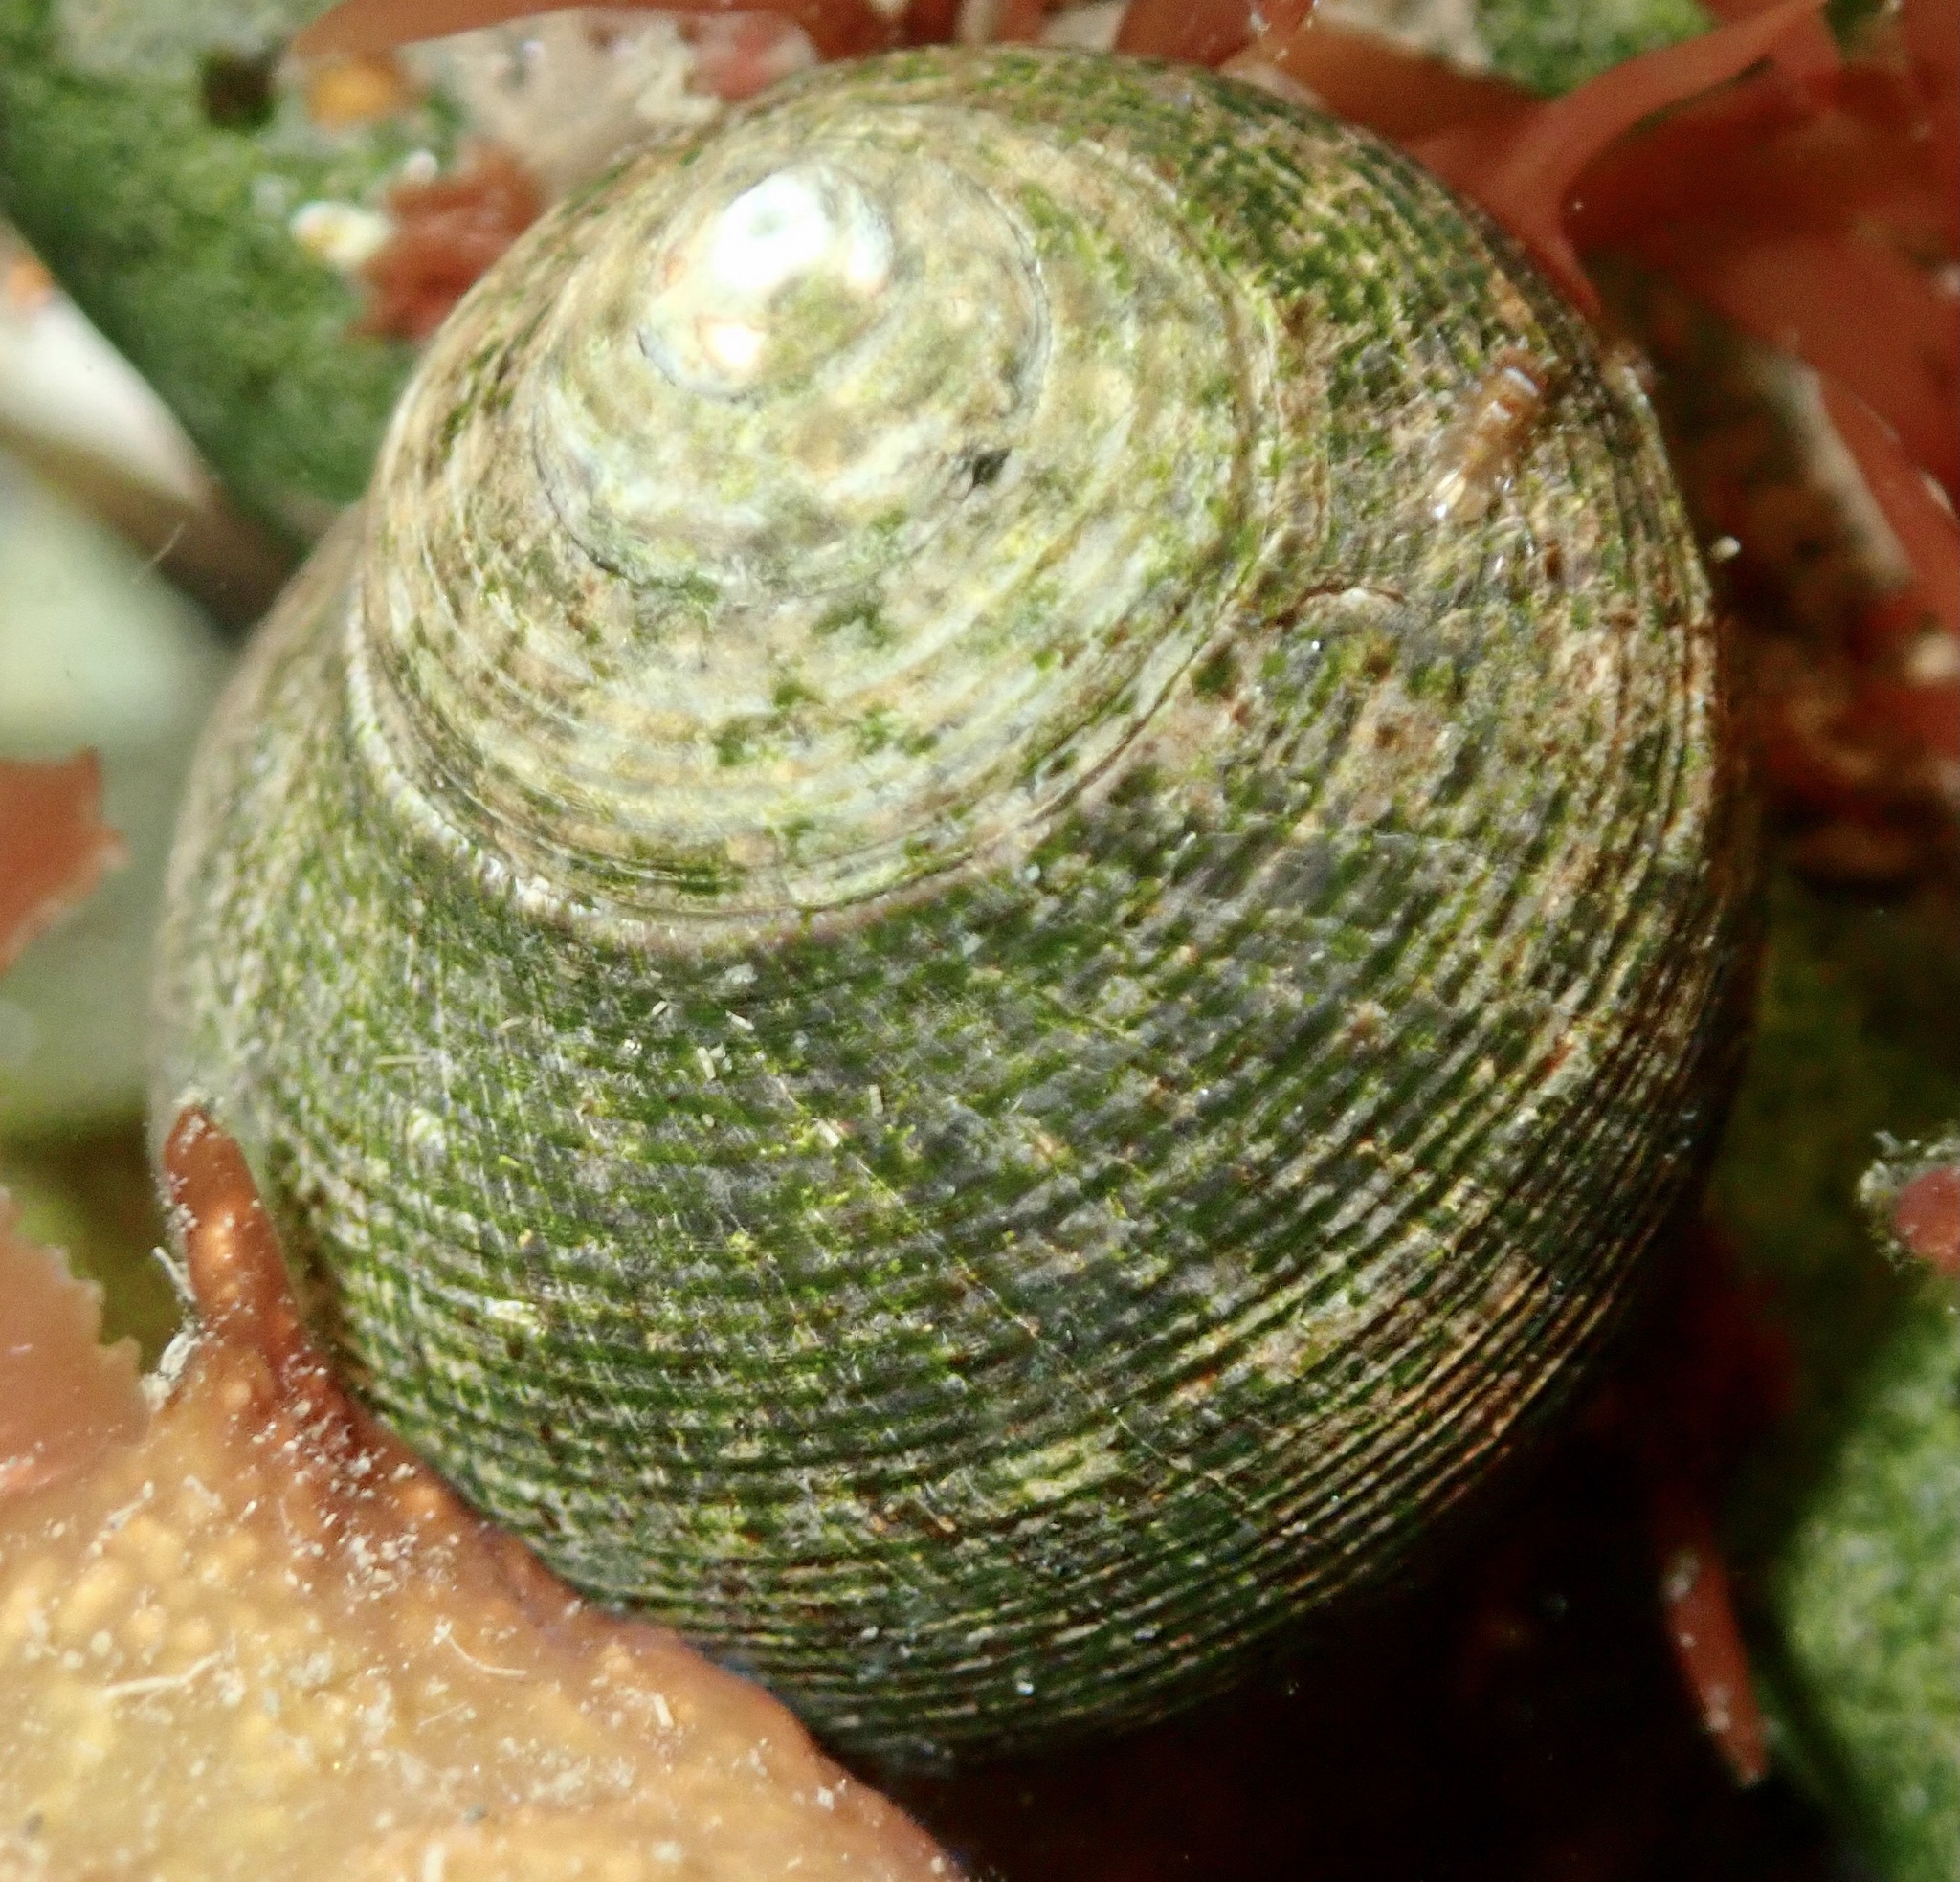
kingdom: Animalia
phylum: Mollusca
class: Gastropoda
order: Littorinimorpha
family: Littorinidae
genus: Littorina
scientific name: Littorina littorea
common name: Common periwinkle
